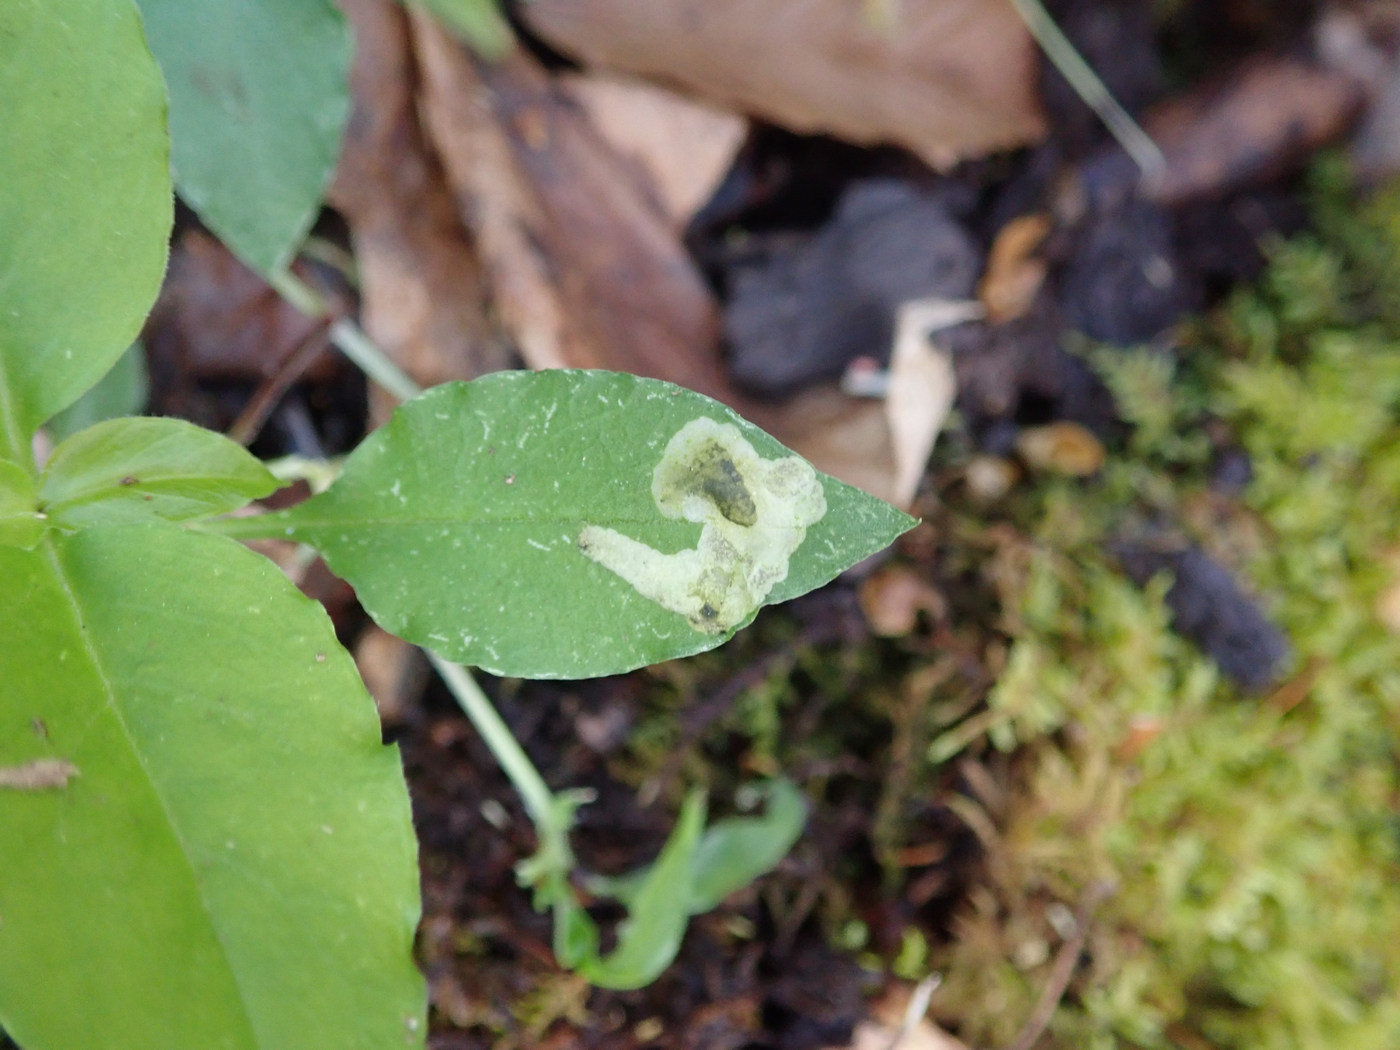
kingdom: Animalia
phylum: Arthropoda
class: Insecta
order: Diptera
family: Anthomyiidae
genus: Pegomya
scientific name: Pegomya flavifrons
